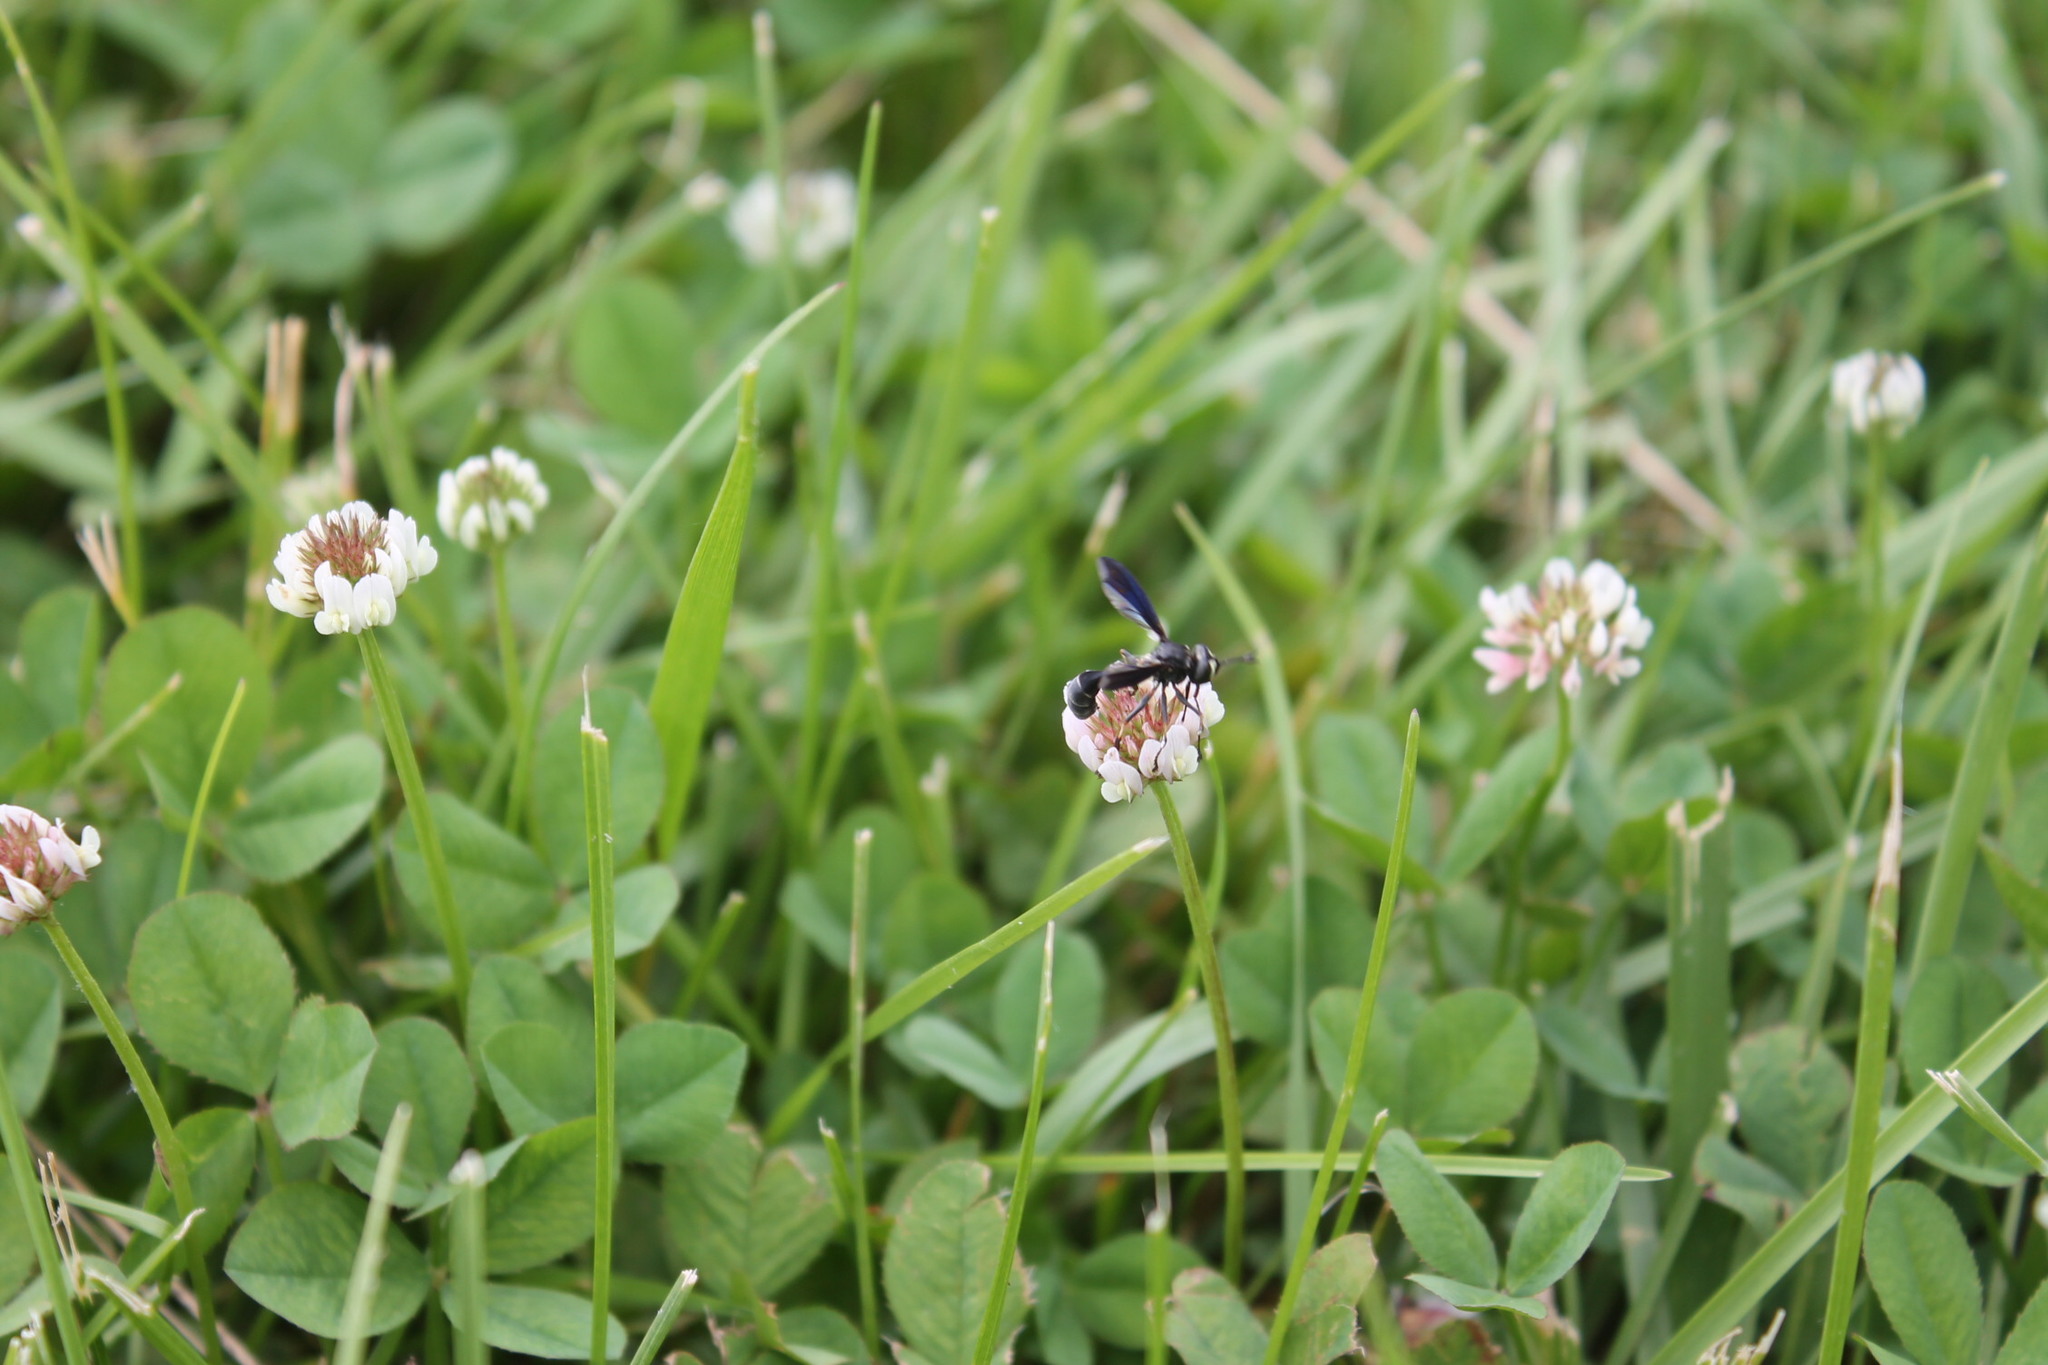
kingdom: Animalia
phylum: Arthropoda
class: Insecta
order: Diptera
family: Conopidae
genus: Physocephala
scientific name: Physocephala tibialis
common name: Common eastern physocephala
